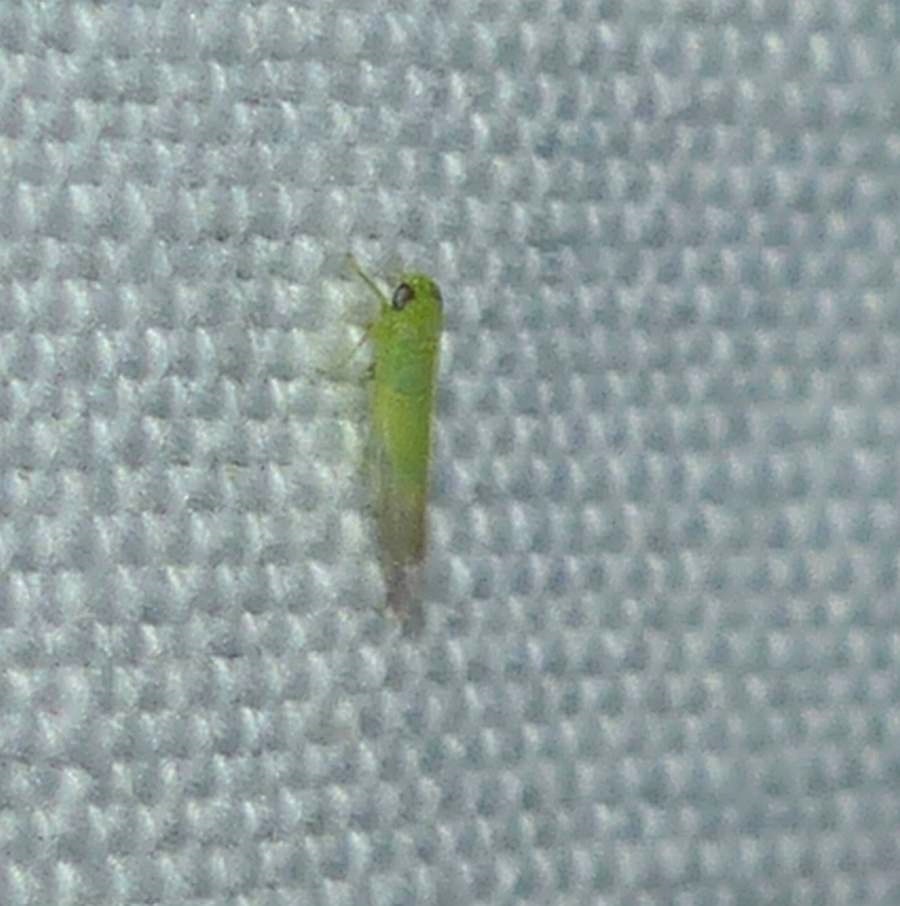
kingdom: Animalia
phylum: Arthropoda
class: Insecta
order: Hemiptera
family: Cicadellidae
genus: Empoasca
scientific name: Empoasca fabae
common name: Potato leafhopper
